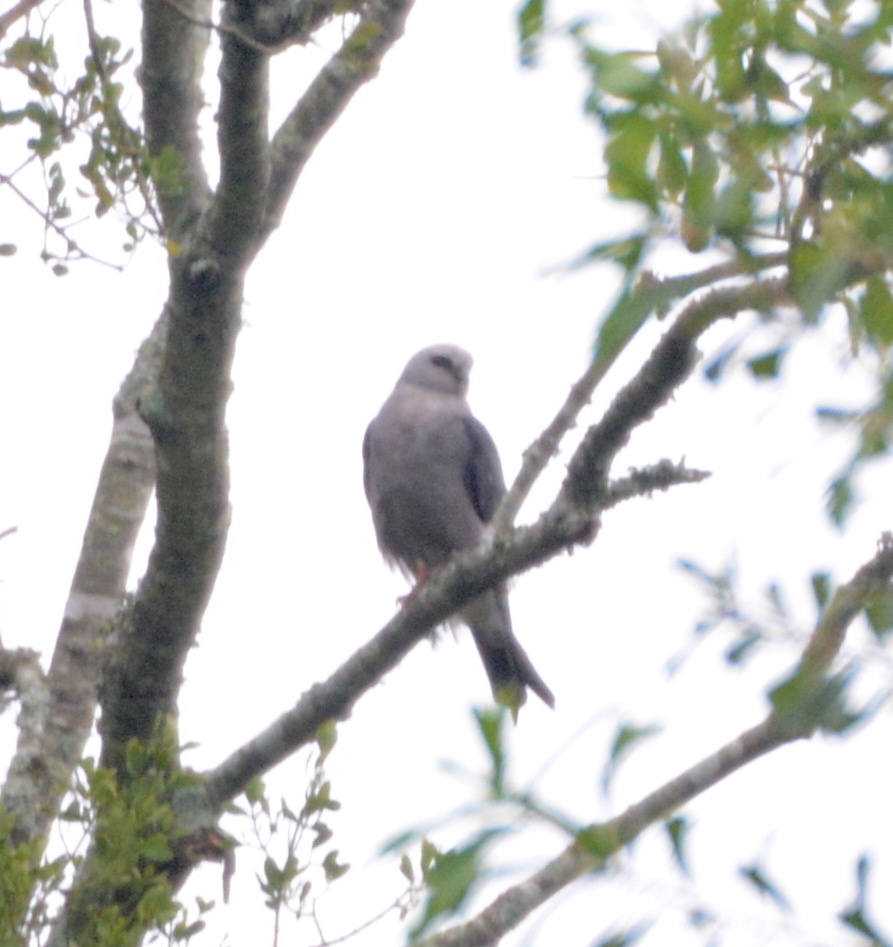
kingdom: Animalia
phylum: Chordata
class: Aves
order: Accipitriformes
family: Accipitridae
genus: Ictinia
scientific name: Ictinia mississippiensis
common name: Mississippi kite
